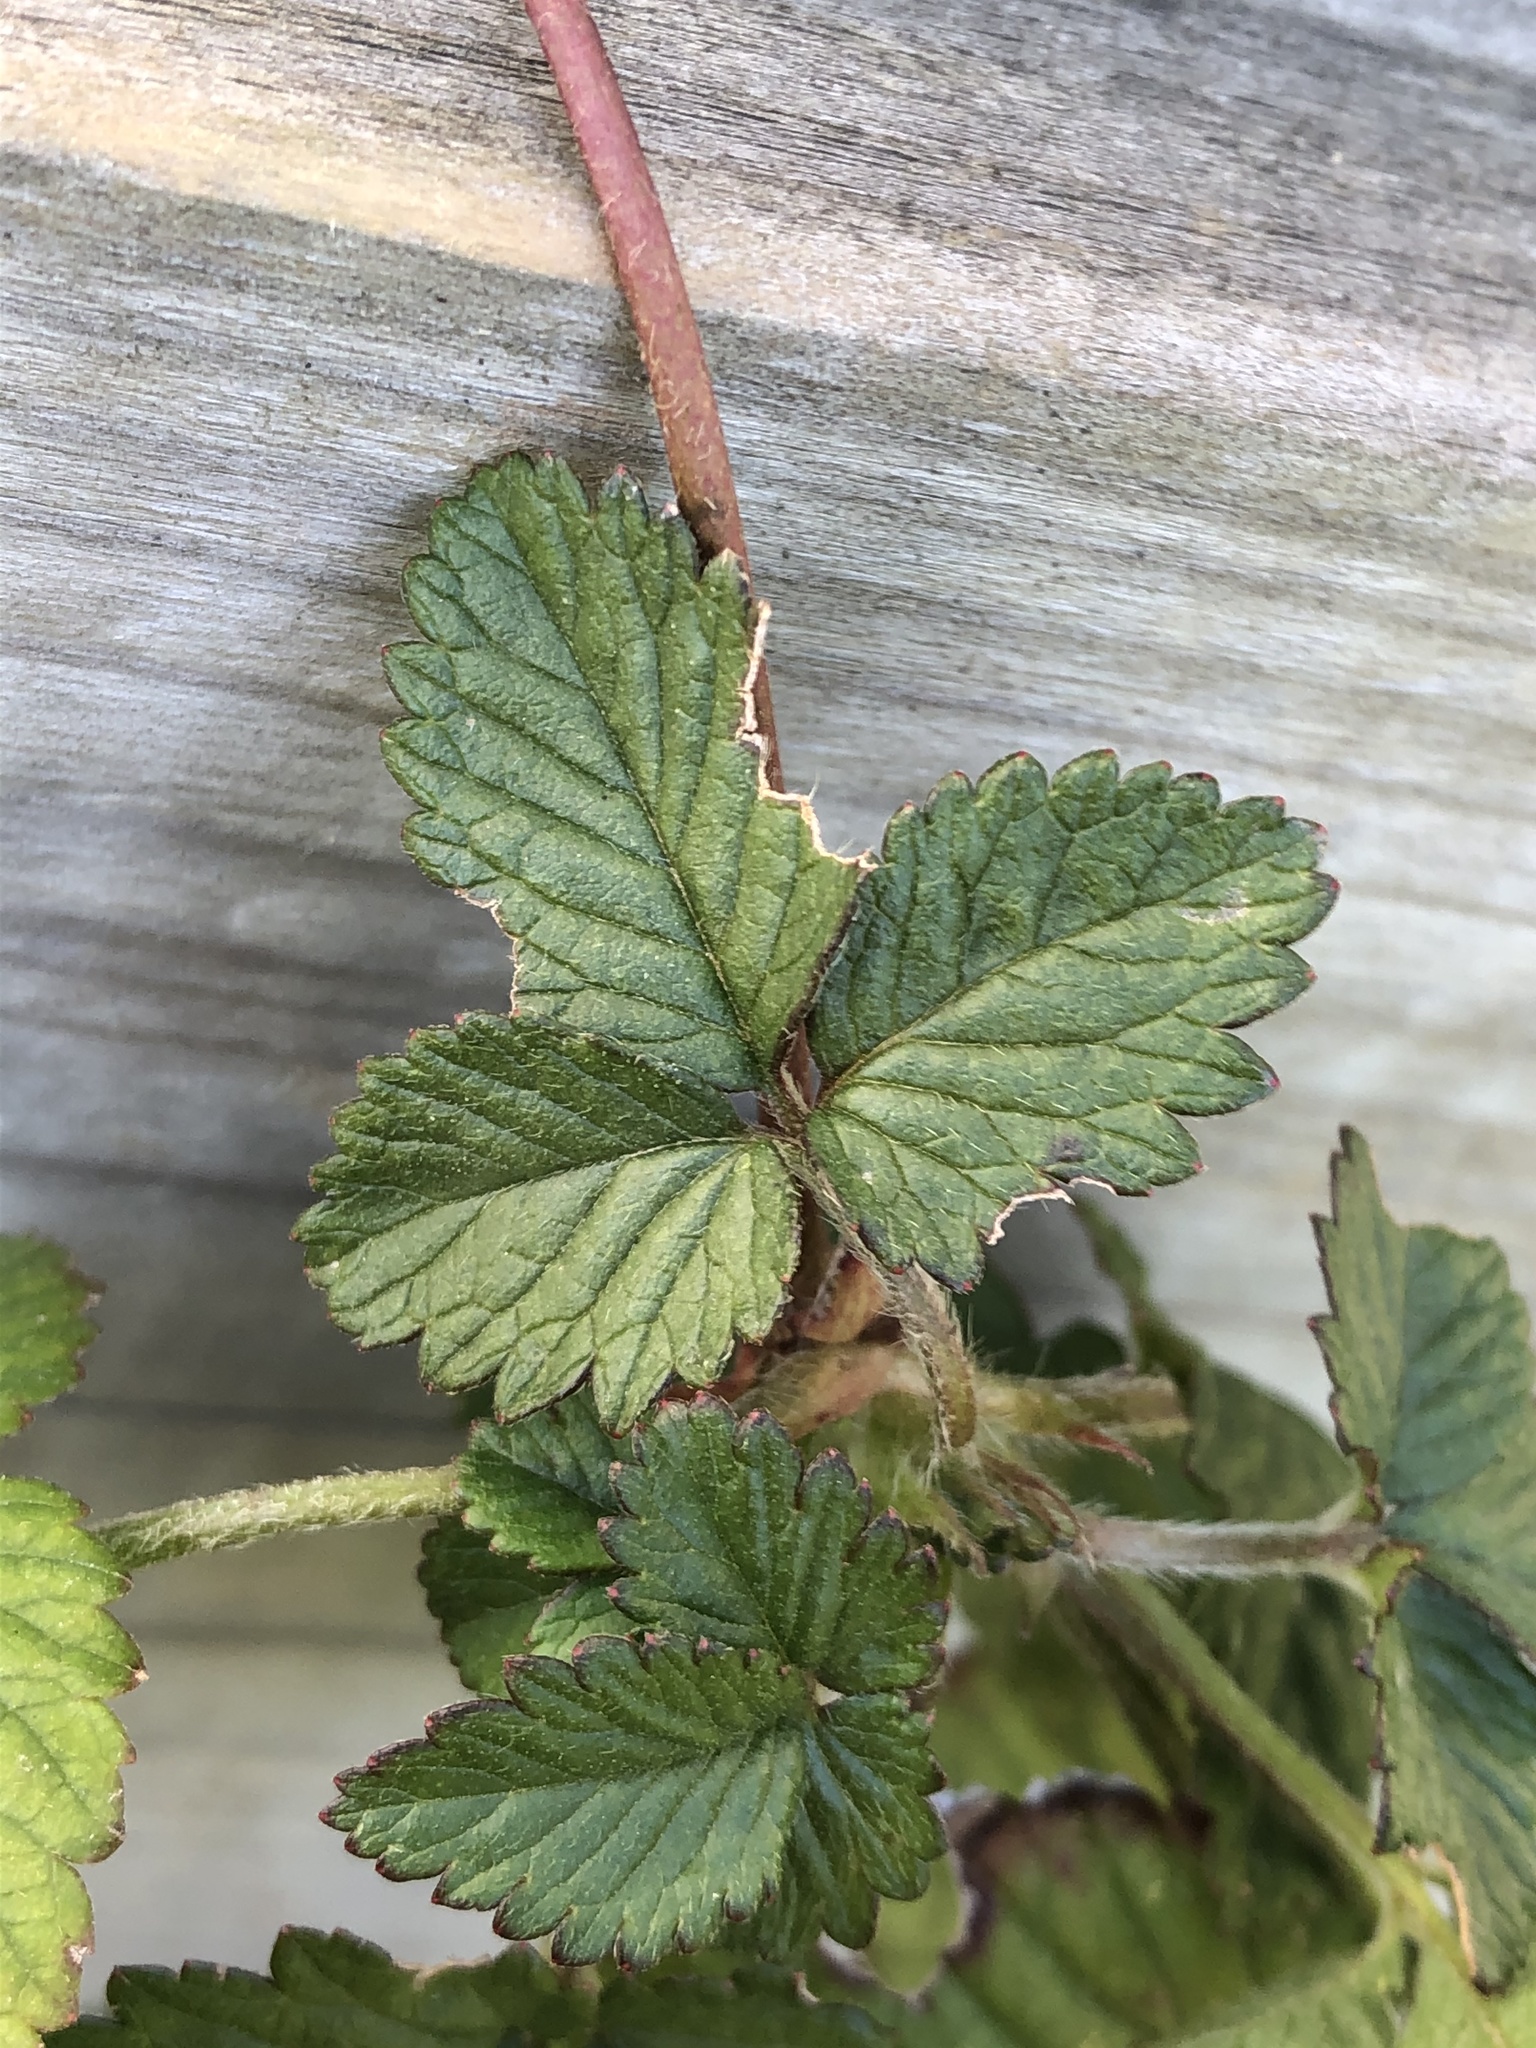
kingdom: Plantae
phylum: Tracheophyta
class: Magnoliopsida
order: Rosales
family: Rosaceae
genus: Potentilla
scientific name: Potentilla indica
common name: Yellow-flowered strawberry
